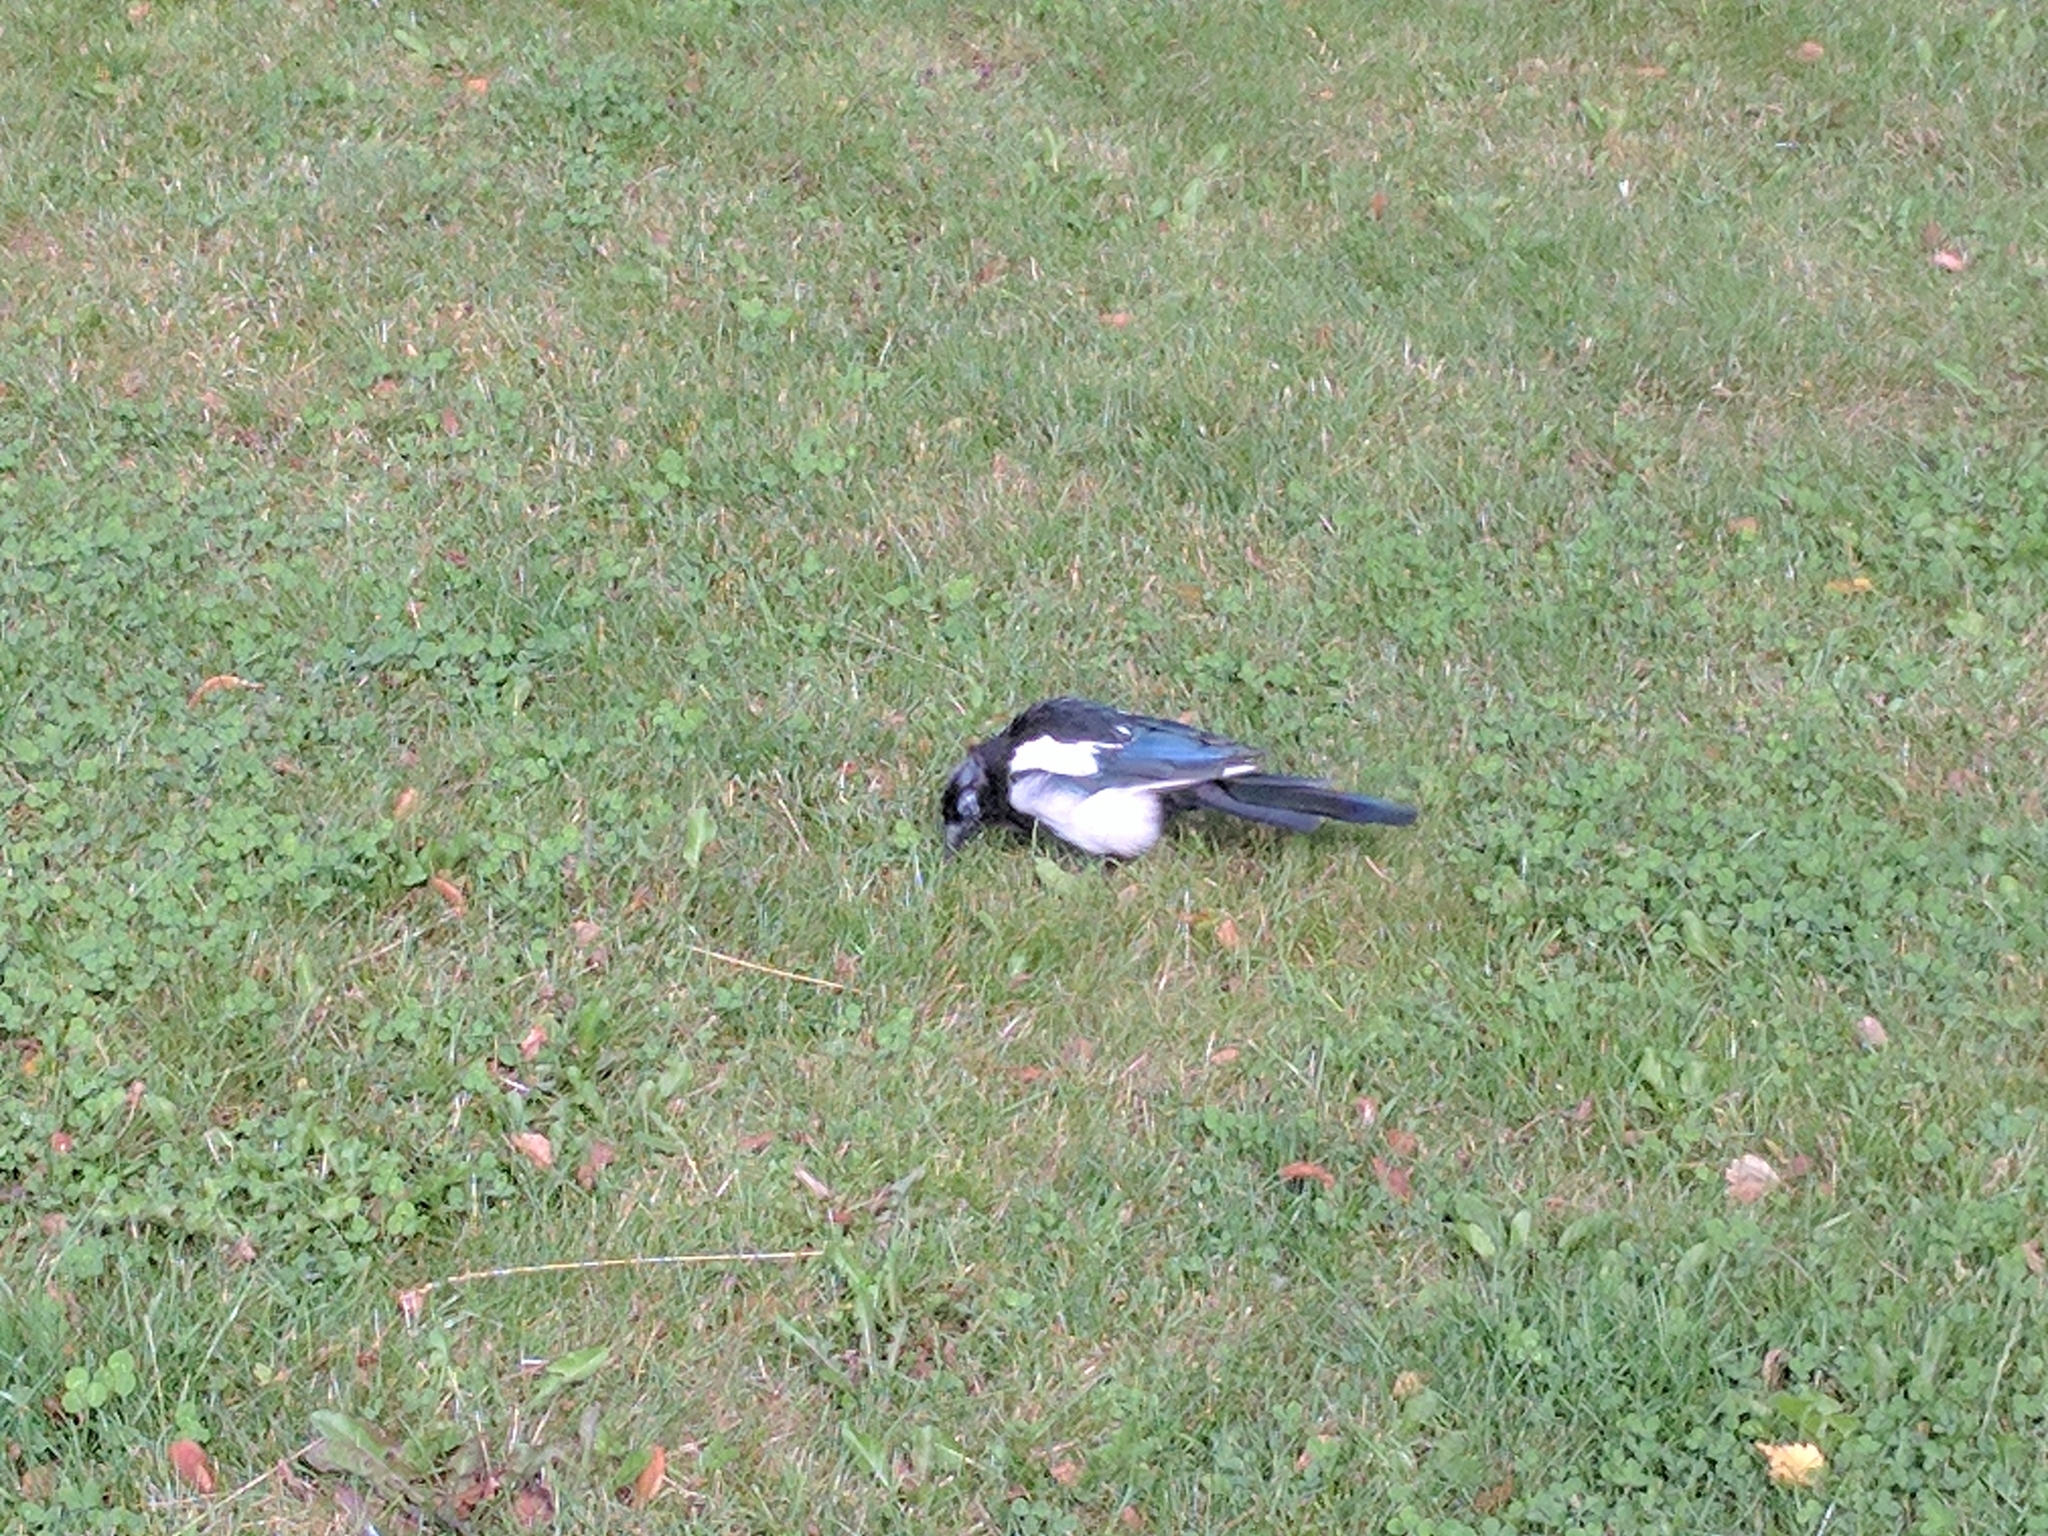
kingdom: Animalia
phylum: Chordata
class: Aves
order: Passeriformes
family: Corvidae
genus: Pica
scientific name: Pica pica
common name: Eurasian magpie
